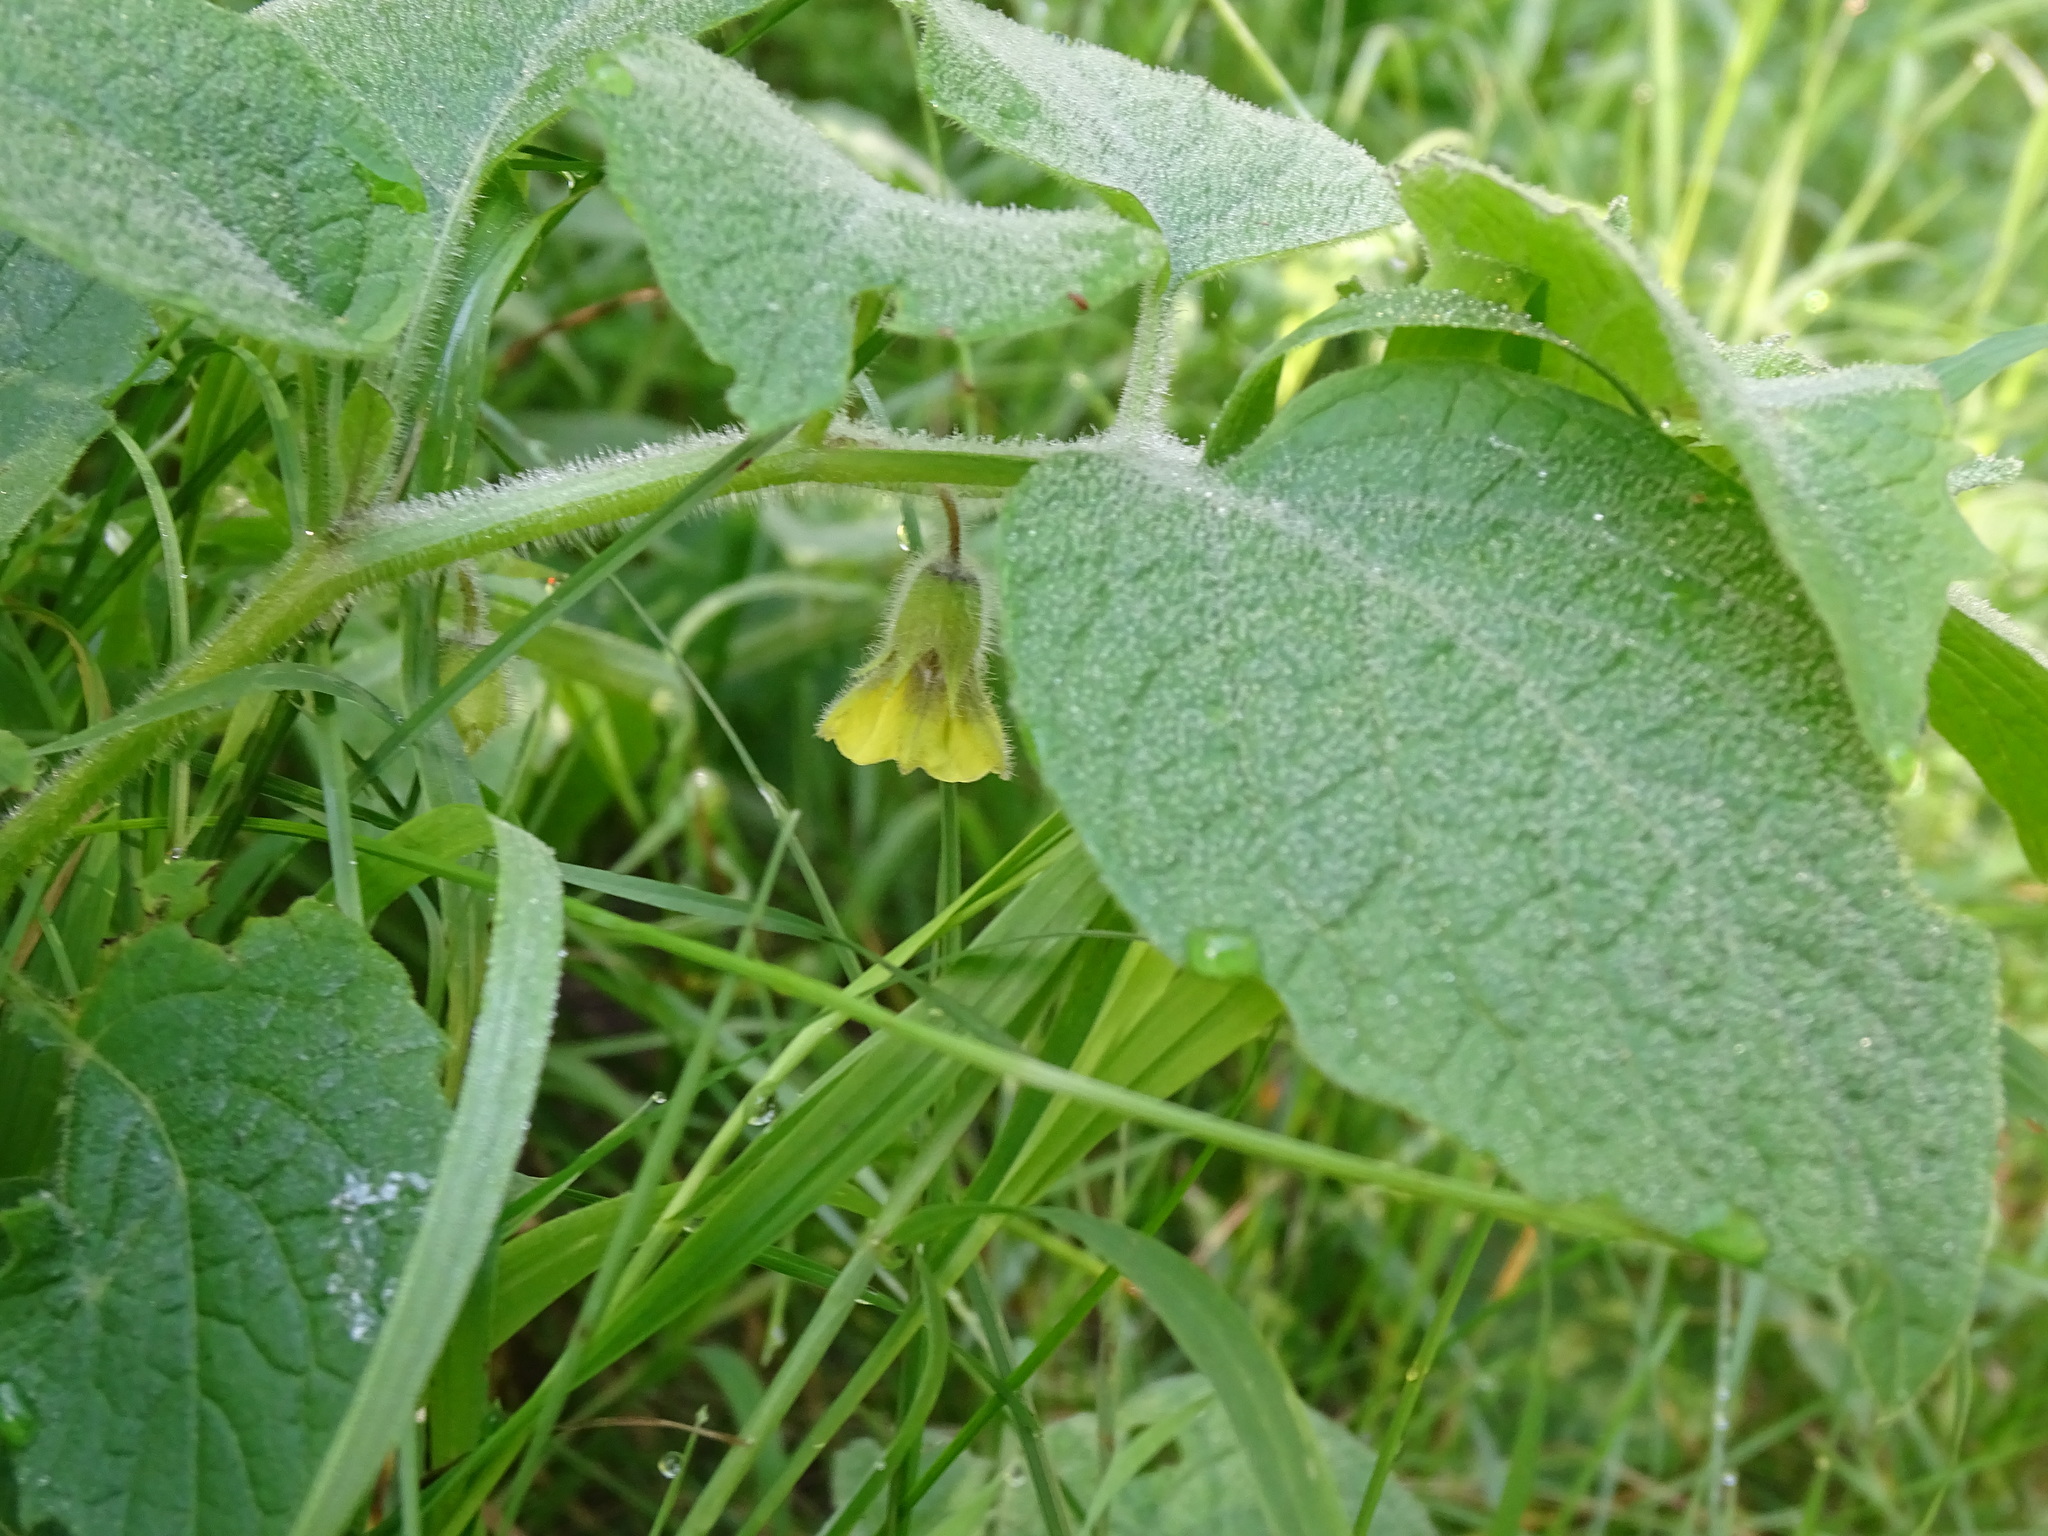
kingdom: Plantae
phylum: Tracheophyta
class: Magnoliopsida
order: Solanales
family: Solanaceae
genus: Physalis
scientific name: Physalis heterophylla
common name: Clammy ground-cherry
